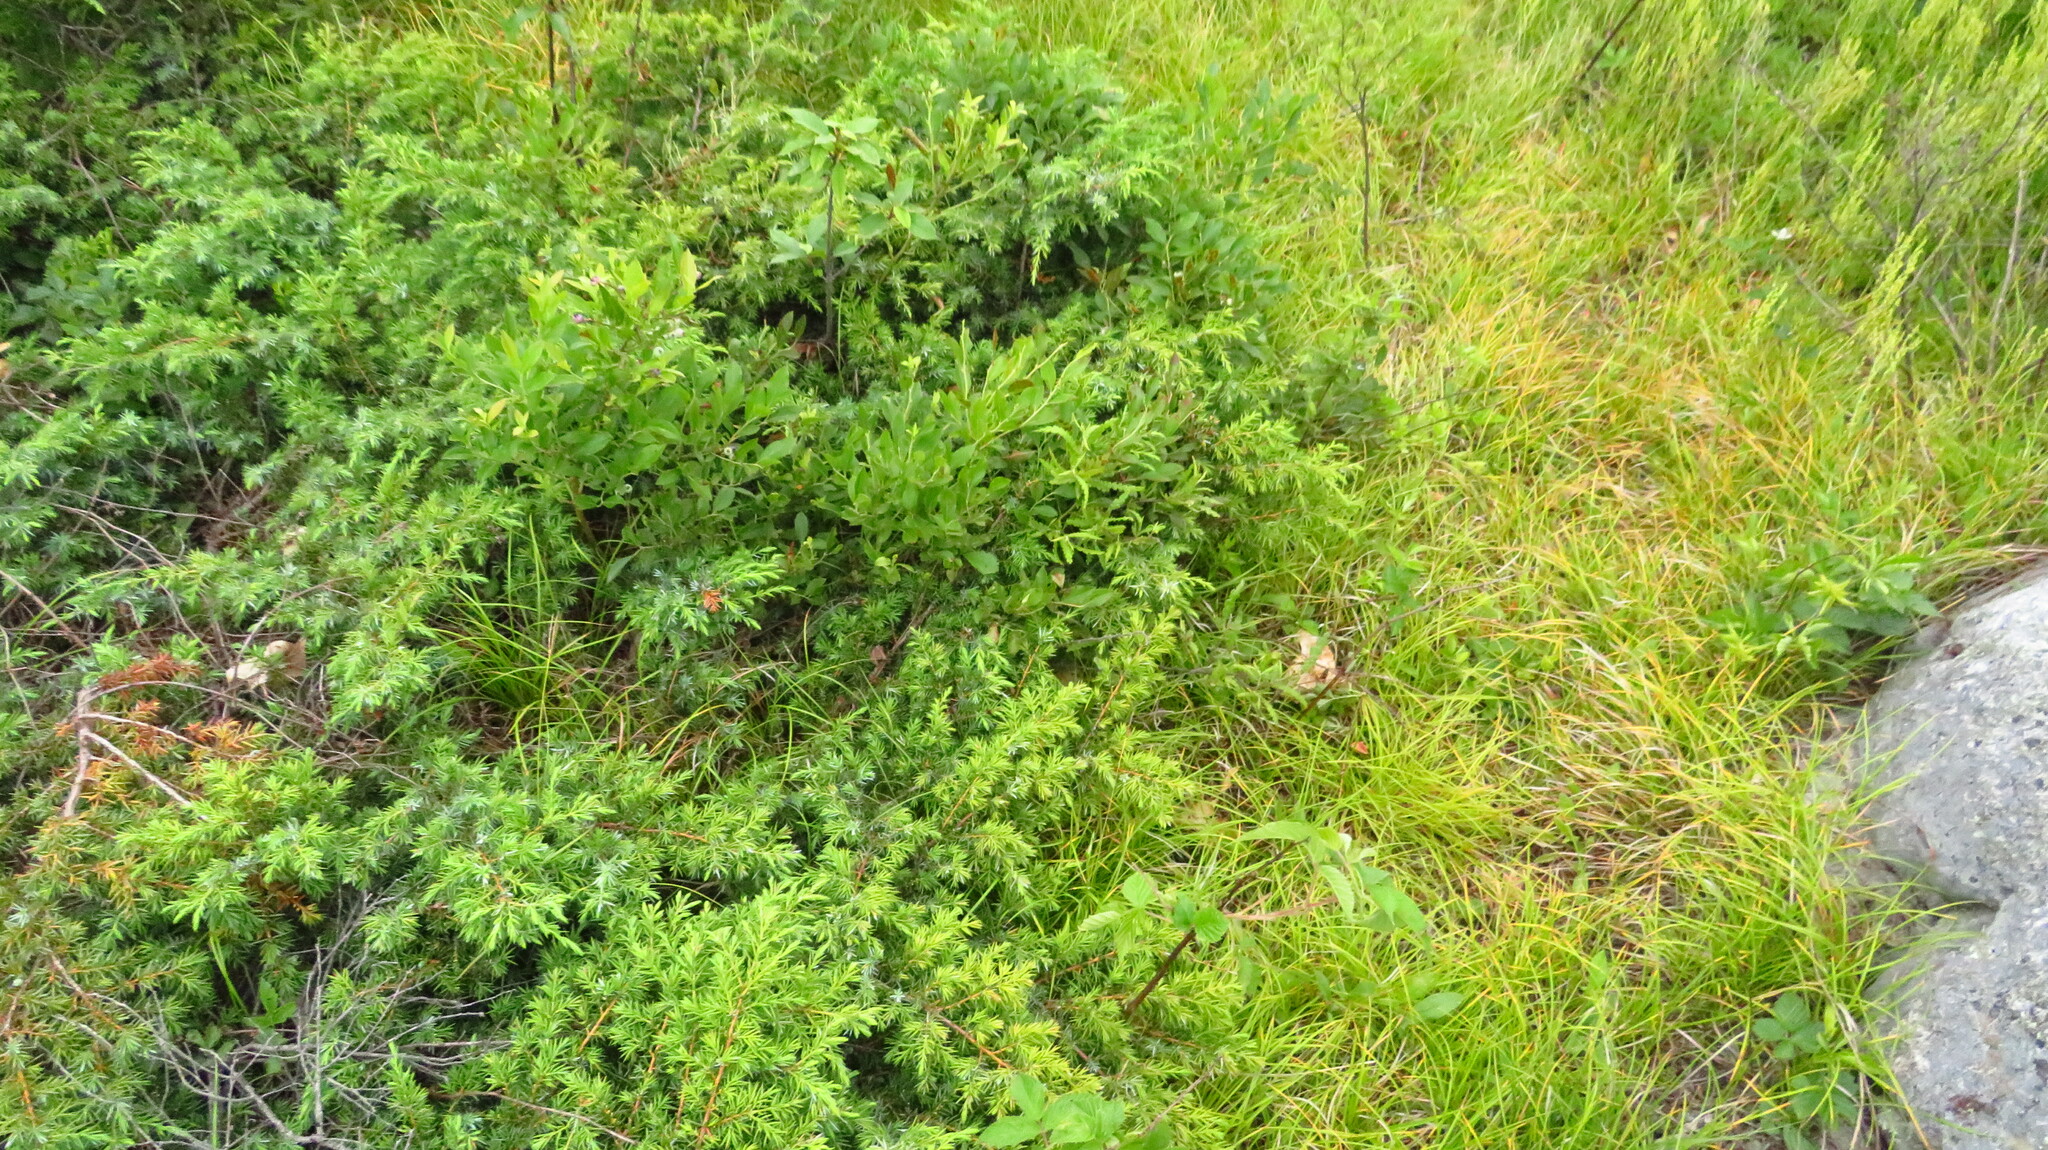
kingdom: Plantae
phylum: Tracheophyta
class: Pinopsida
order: Pinales
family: Cupressaceae
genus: Juniperus
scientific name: Juniperus communis
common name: Common juniper
